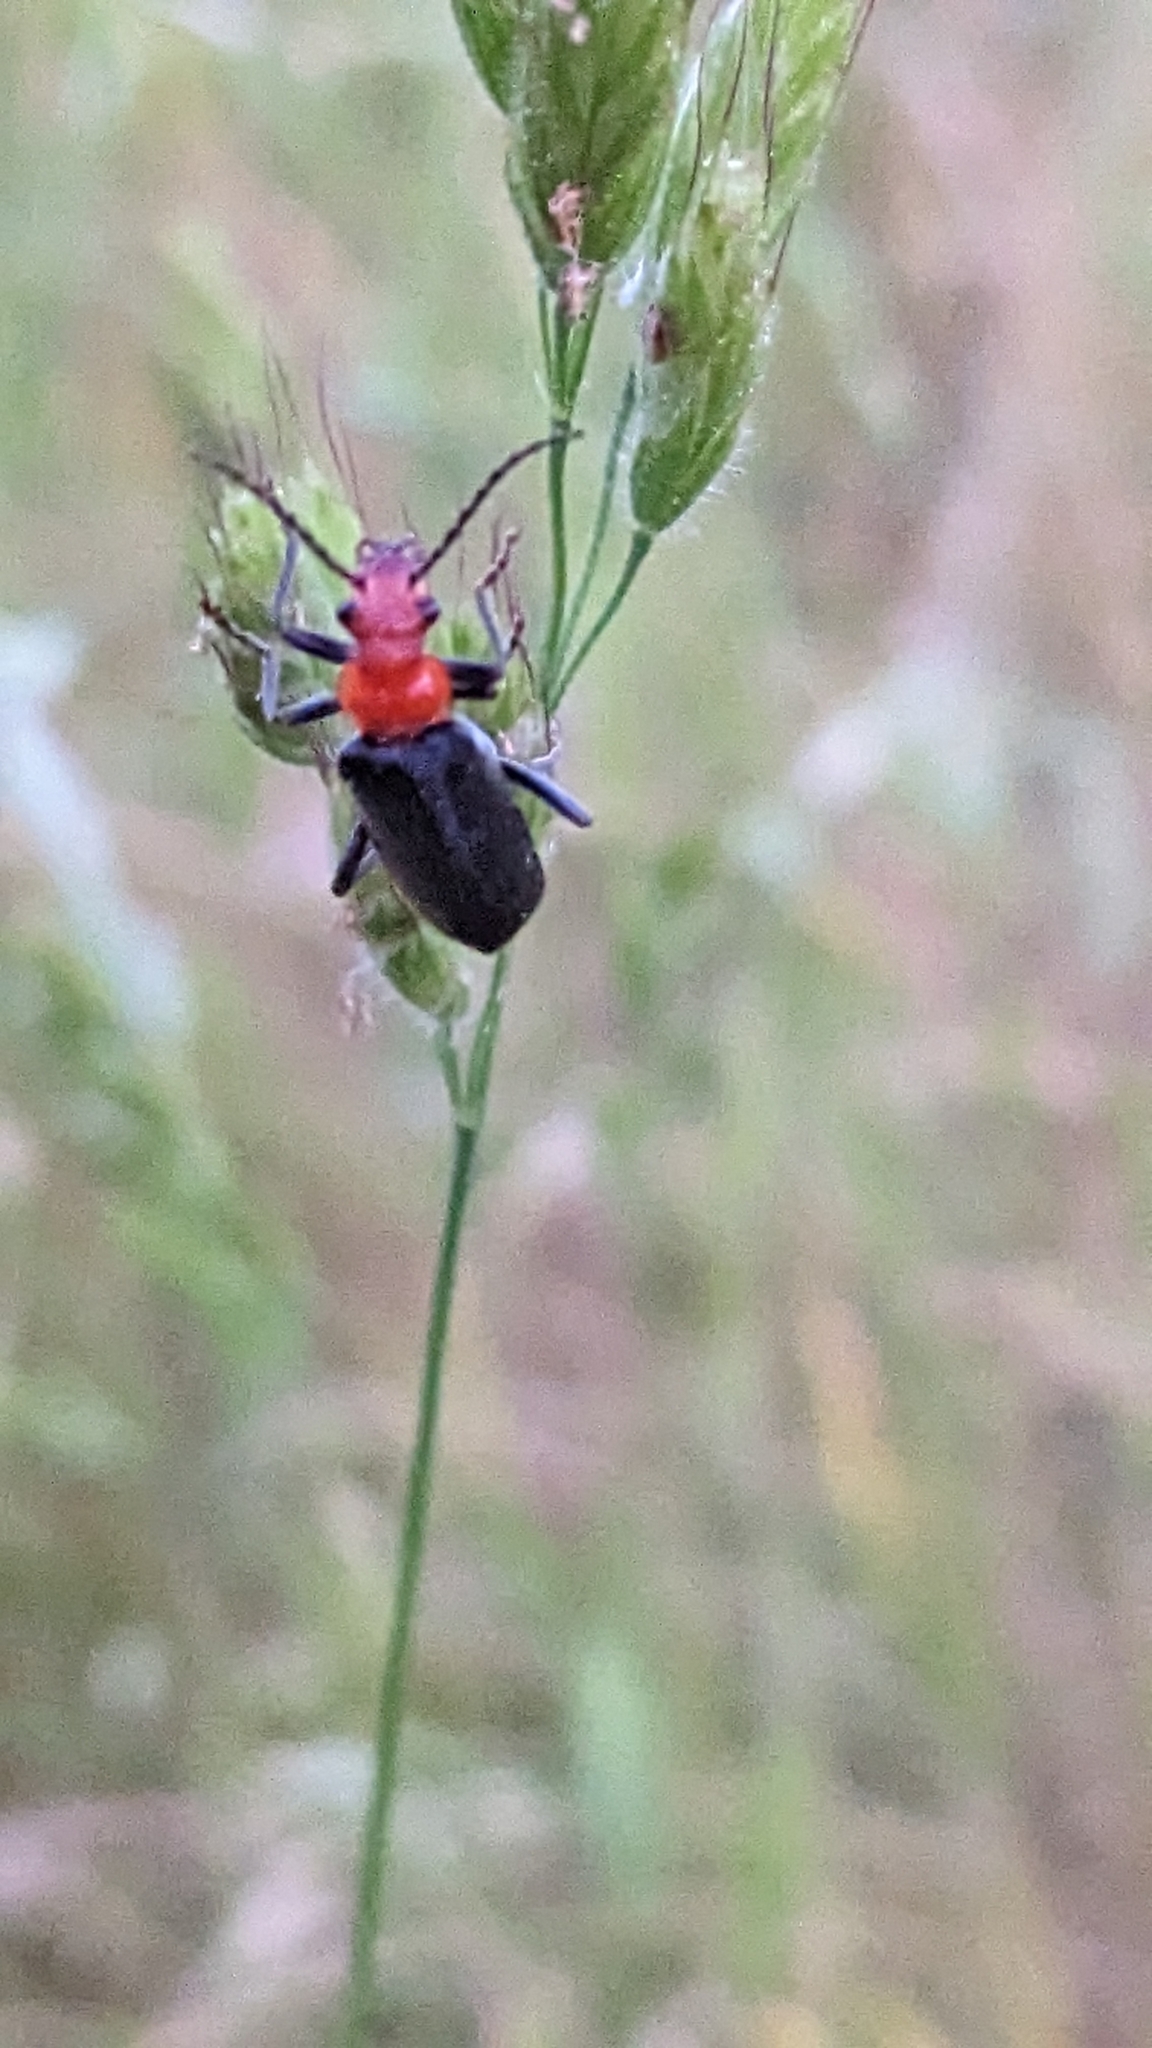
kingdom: Animalia
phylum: Arthropoda
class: Insecta
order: Coleoptera
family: Cantharidae
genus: Podabrus
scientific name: Podabrus pruinosus
